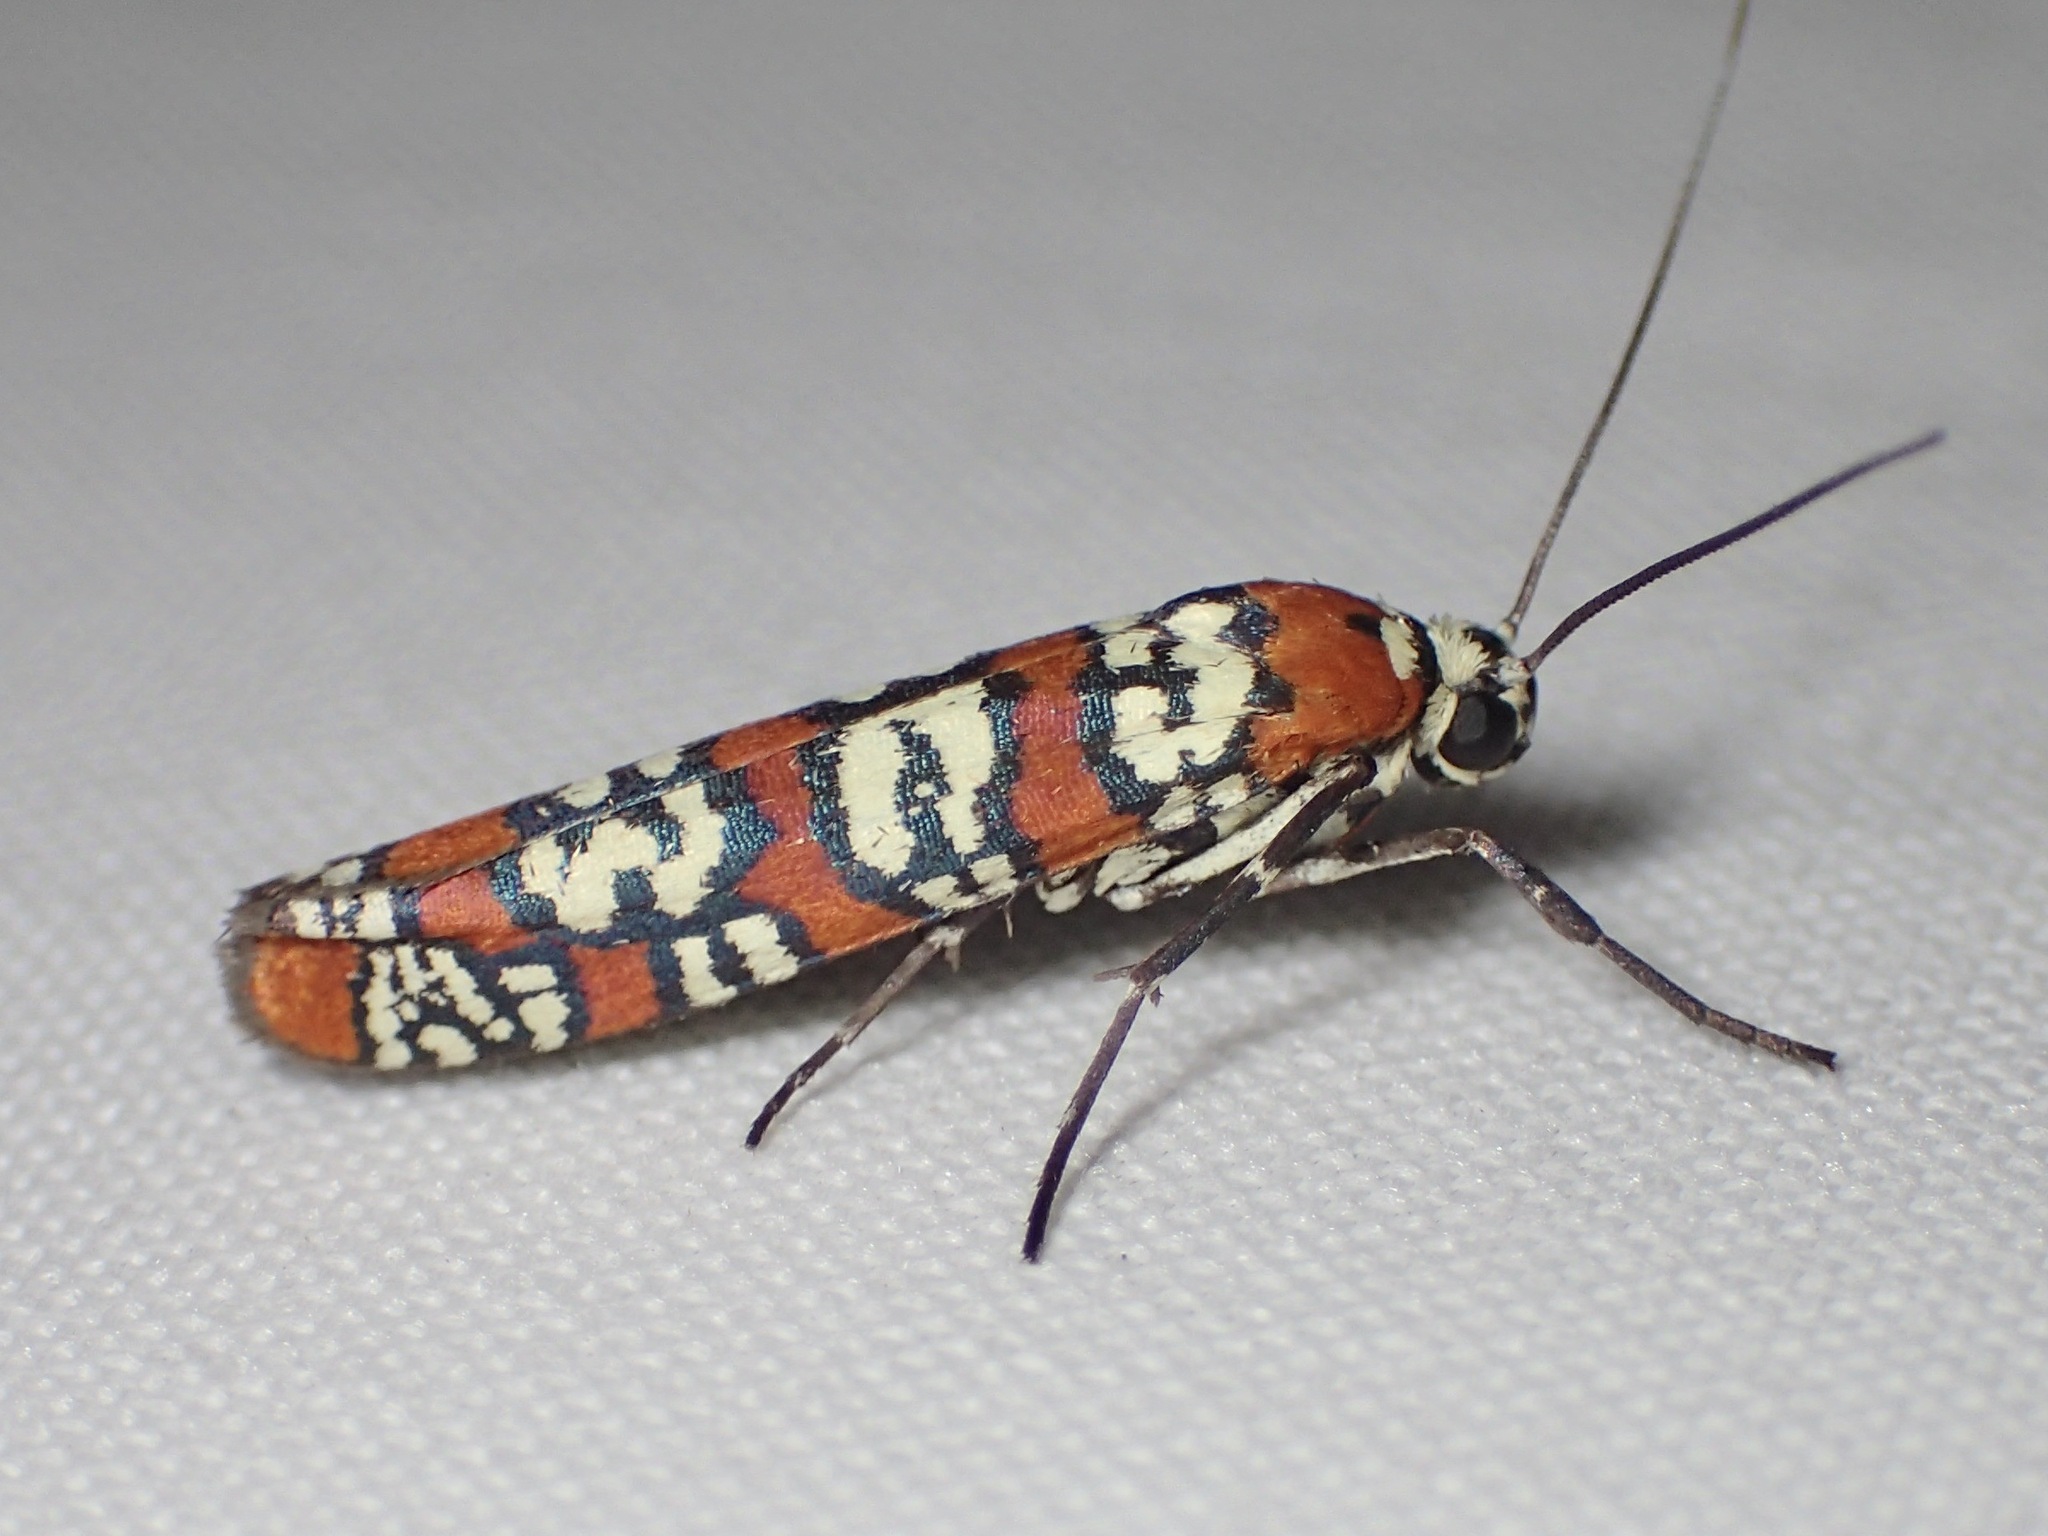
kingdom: Animalia
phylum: Arthropoda
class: Insecta
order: Lepidoptera
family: Attevidae
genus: Atteva
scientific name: Atteva punctella
